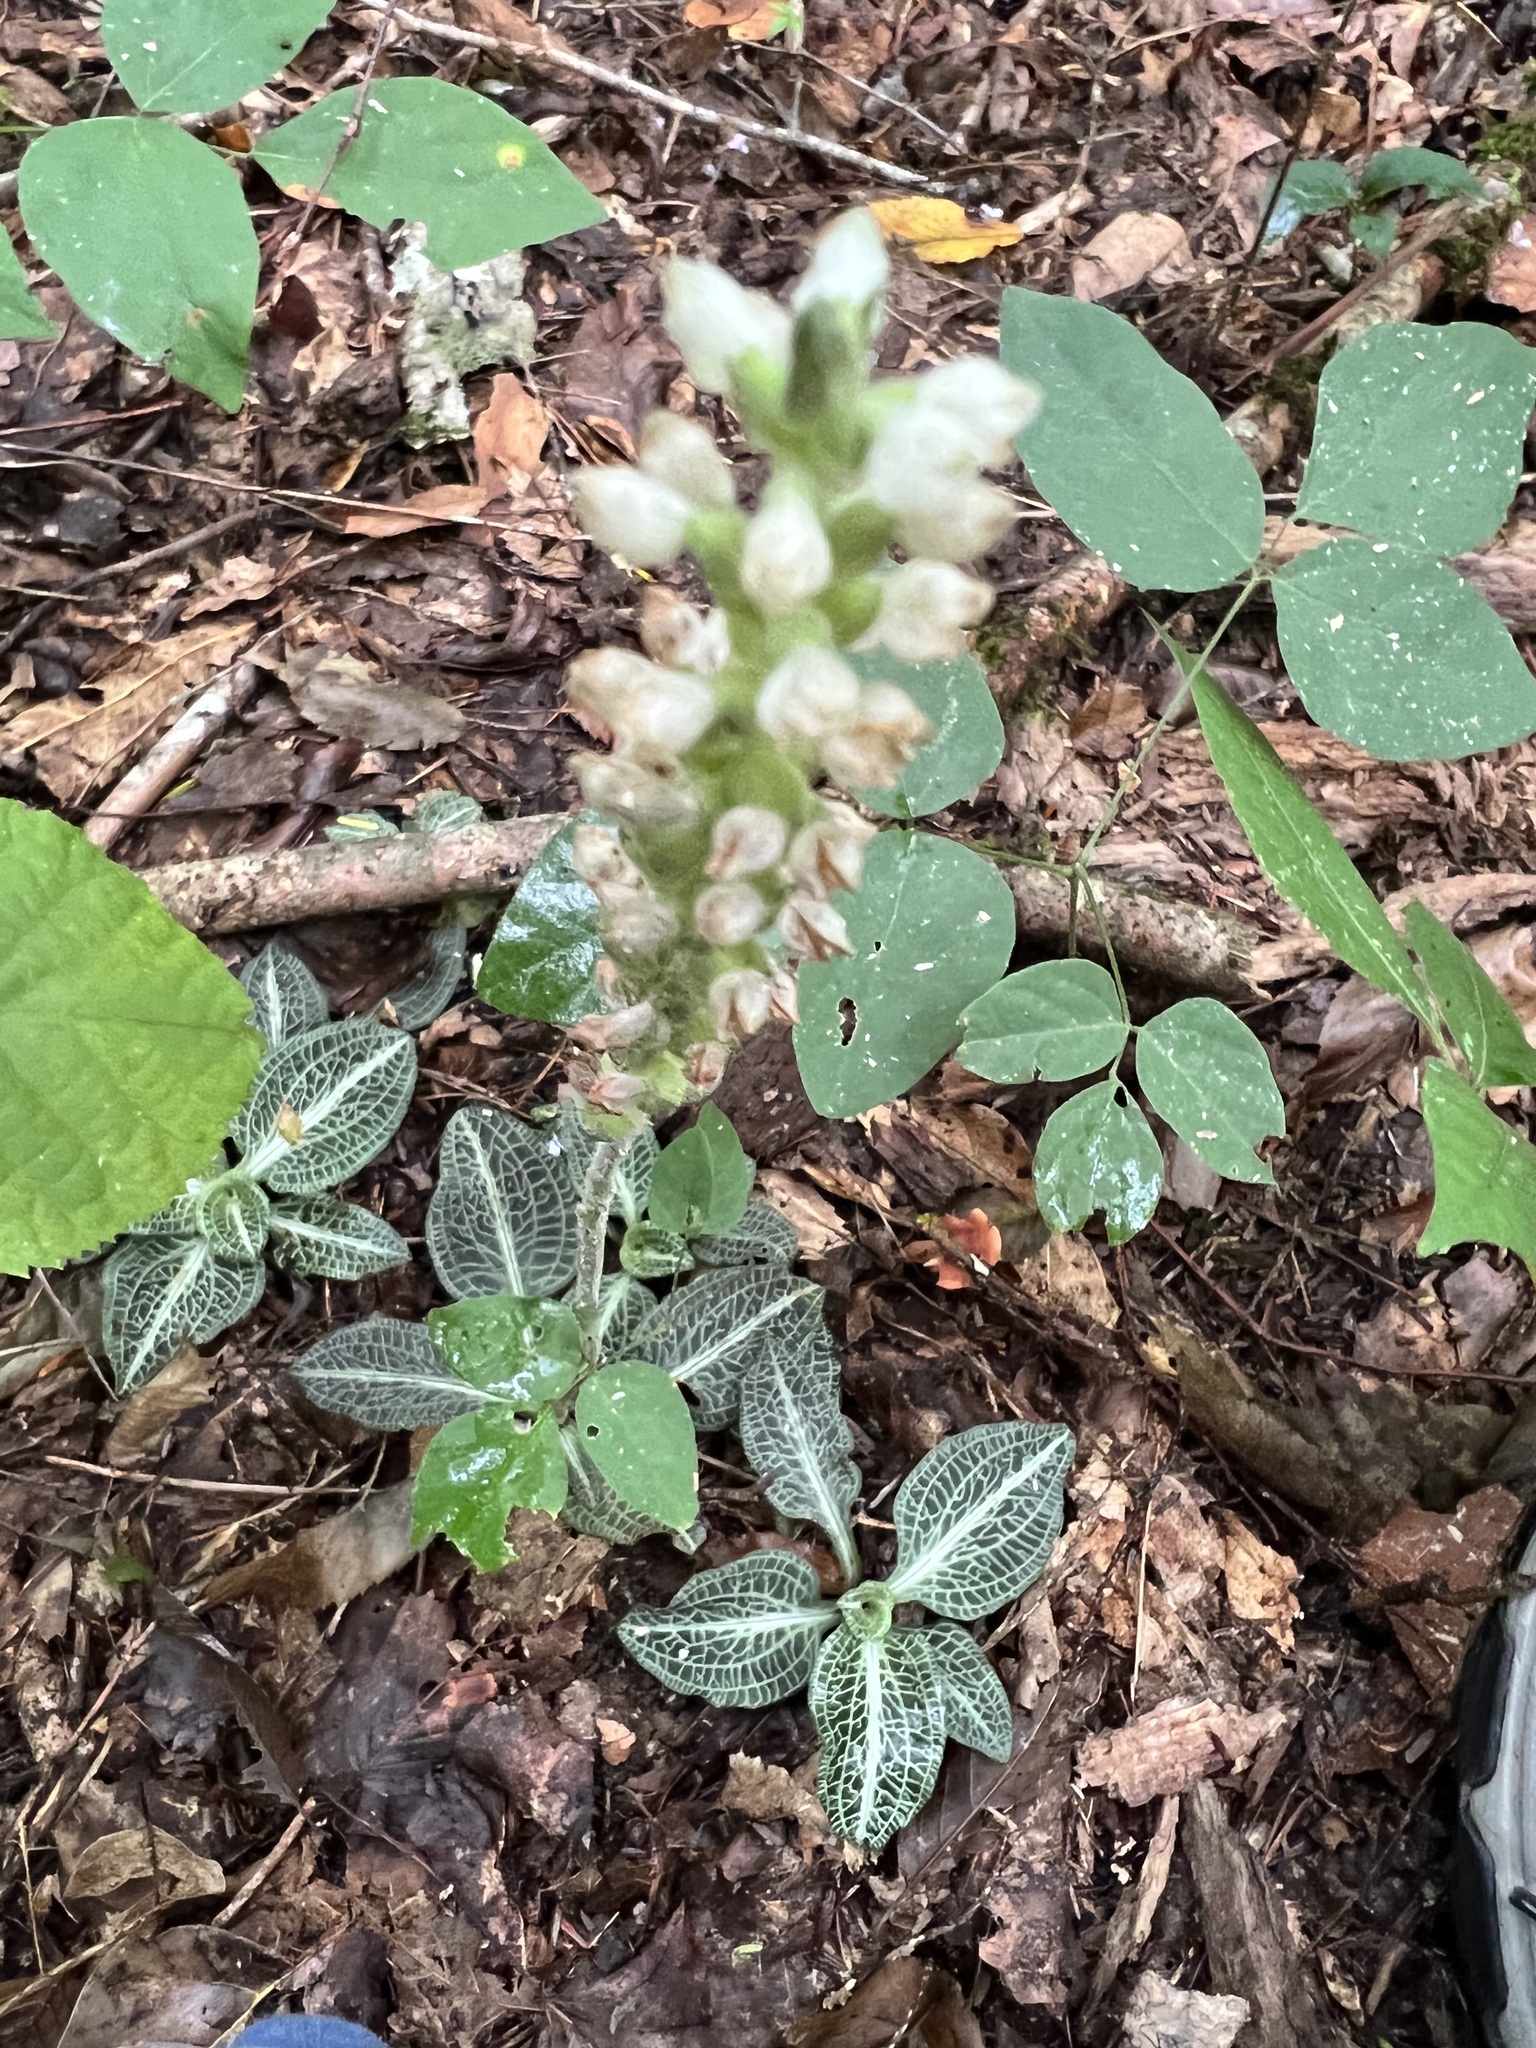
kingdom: Plantae
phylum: Tracheophyta
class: Liliopsida
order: Asparagales
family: Orchidaceae
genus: Goodyera
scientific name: Goodyera pubescens
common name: Downy rattlesnake-plantain
